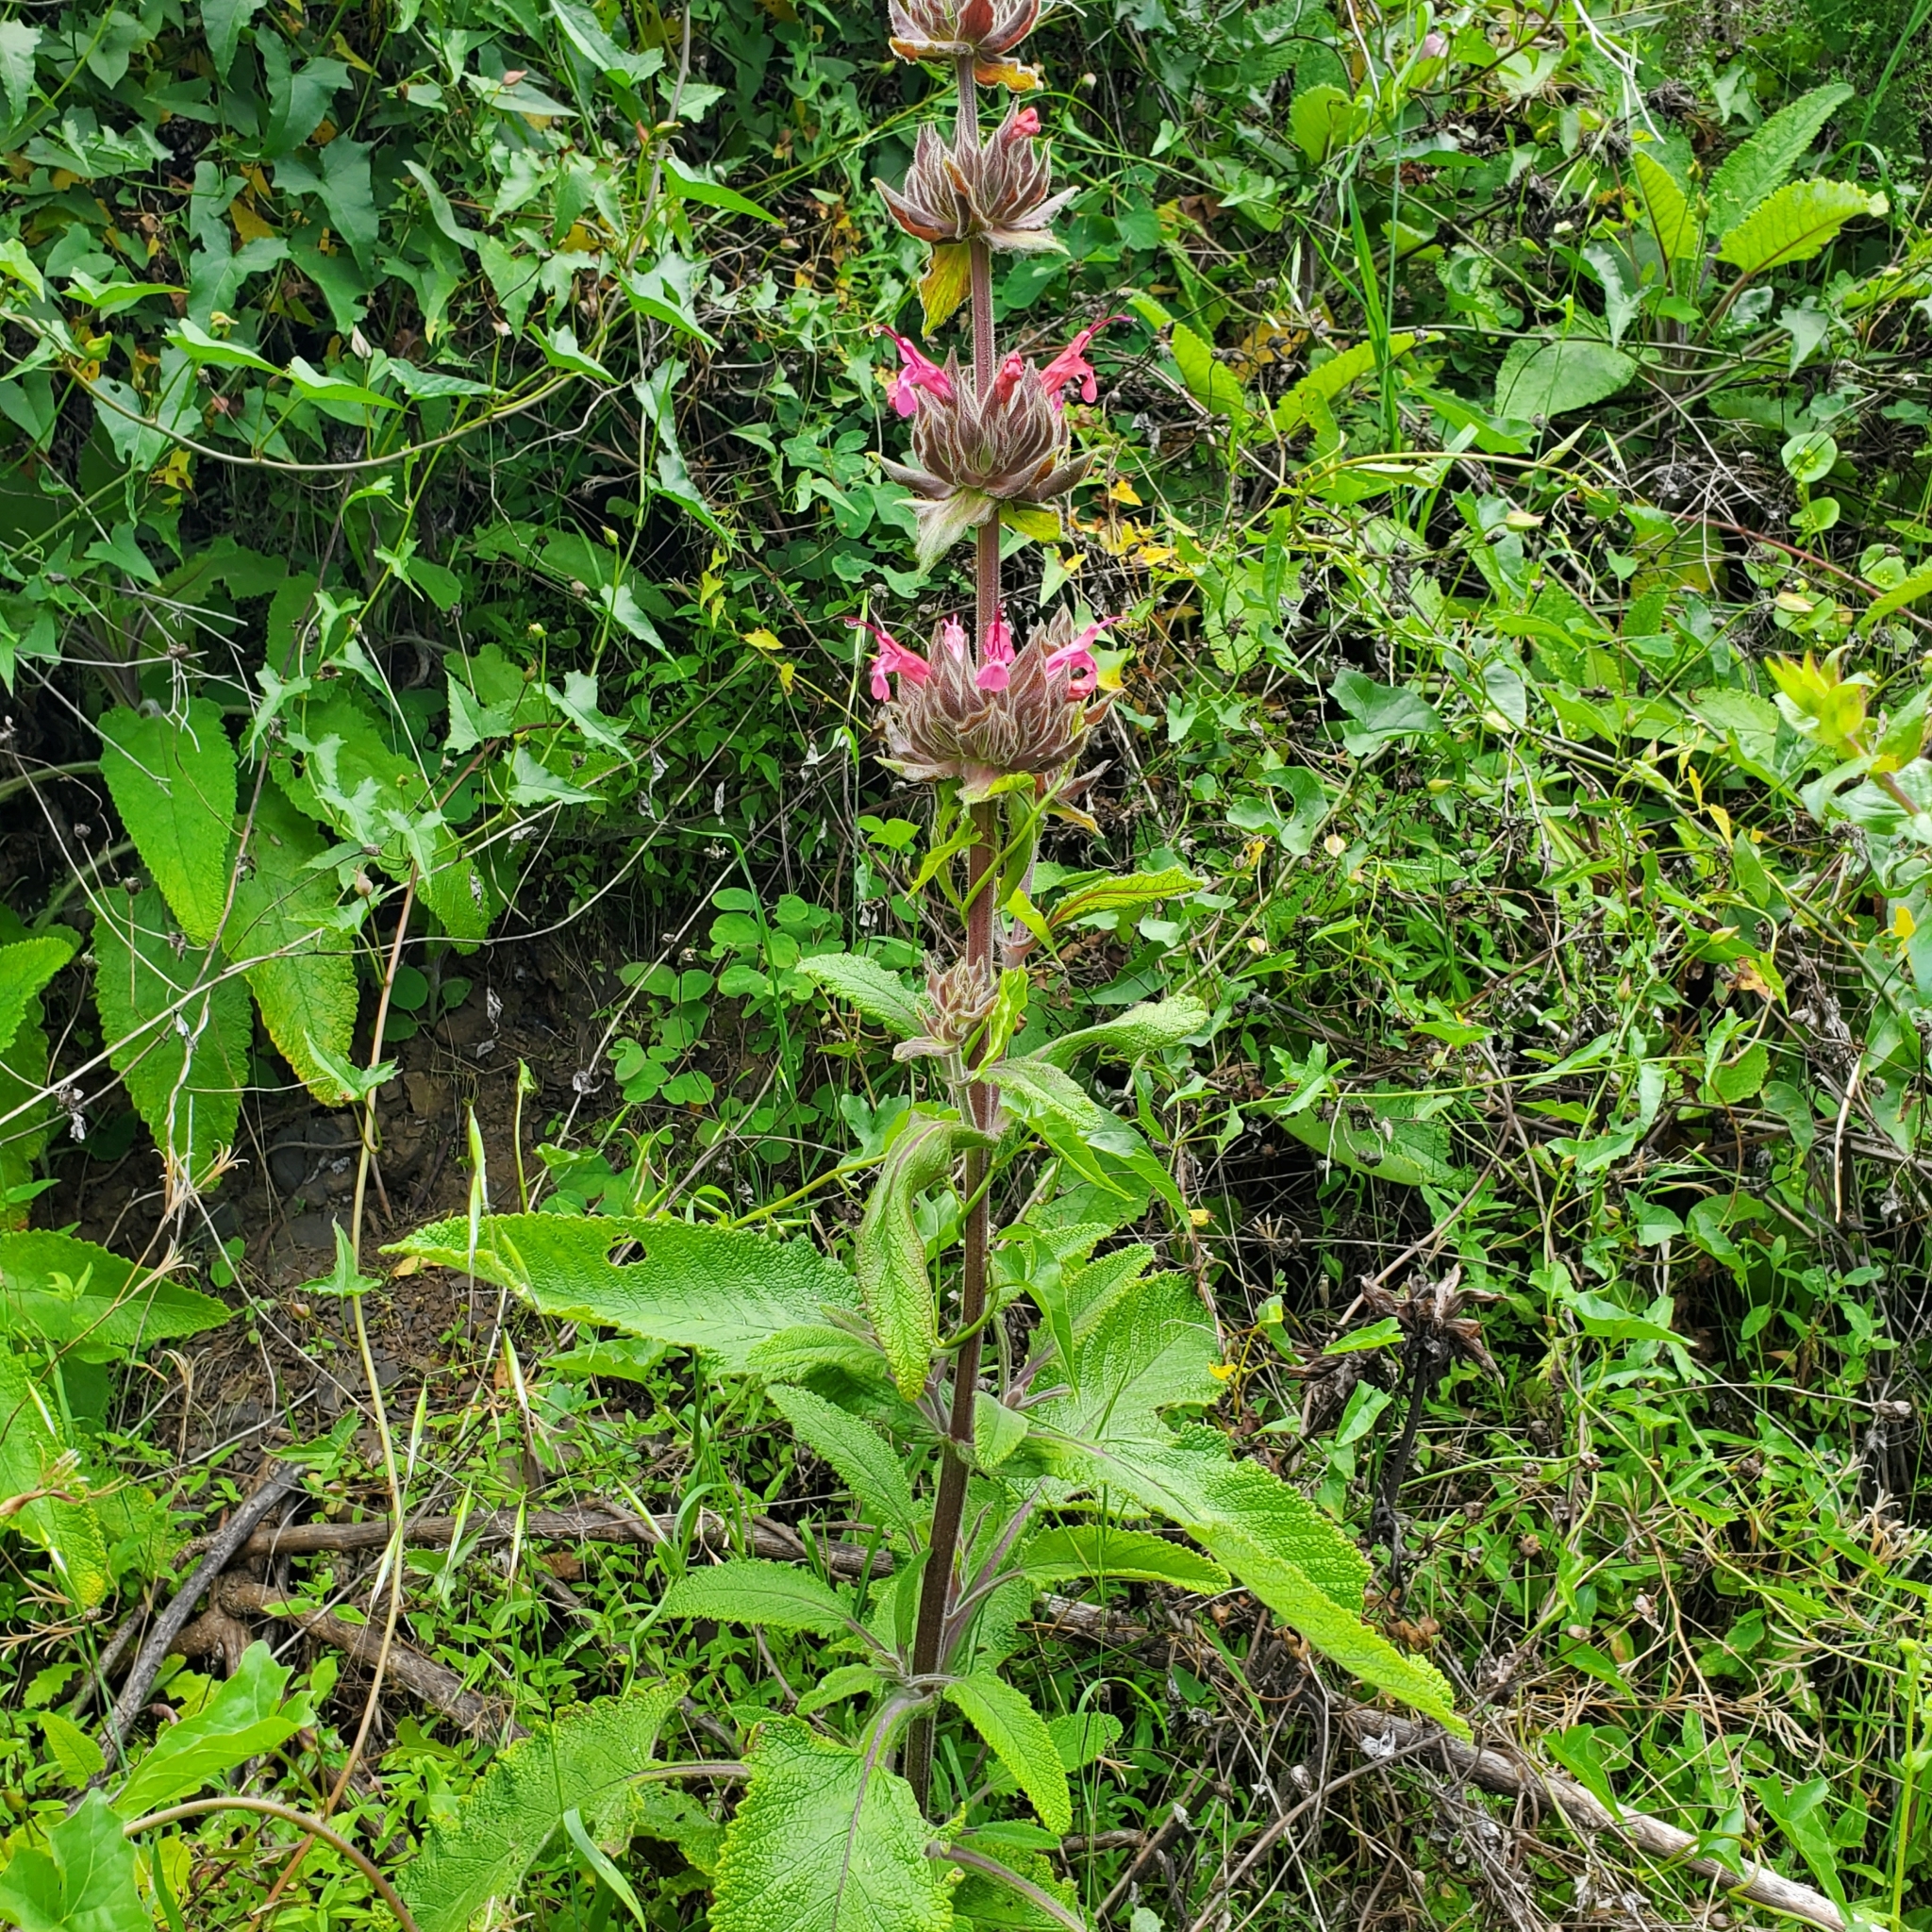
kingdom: Plantae
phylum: Tracheophyta
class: Magnoliopsida
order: Lamiales
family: Lamiaceae
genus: Salvia
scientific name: Salvia spathacea
